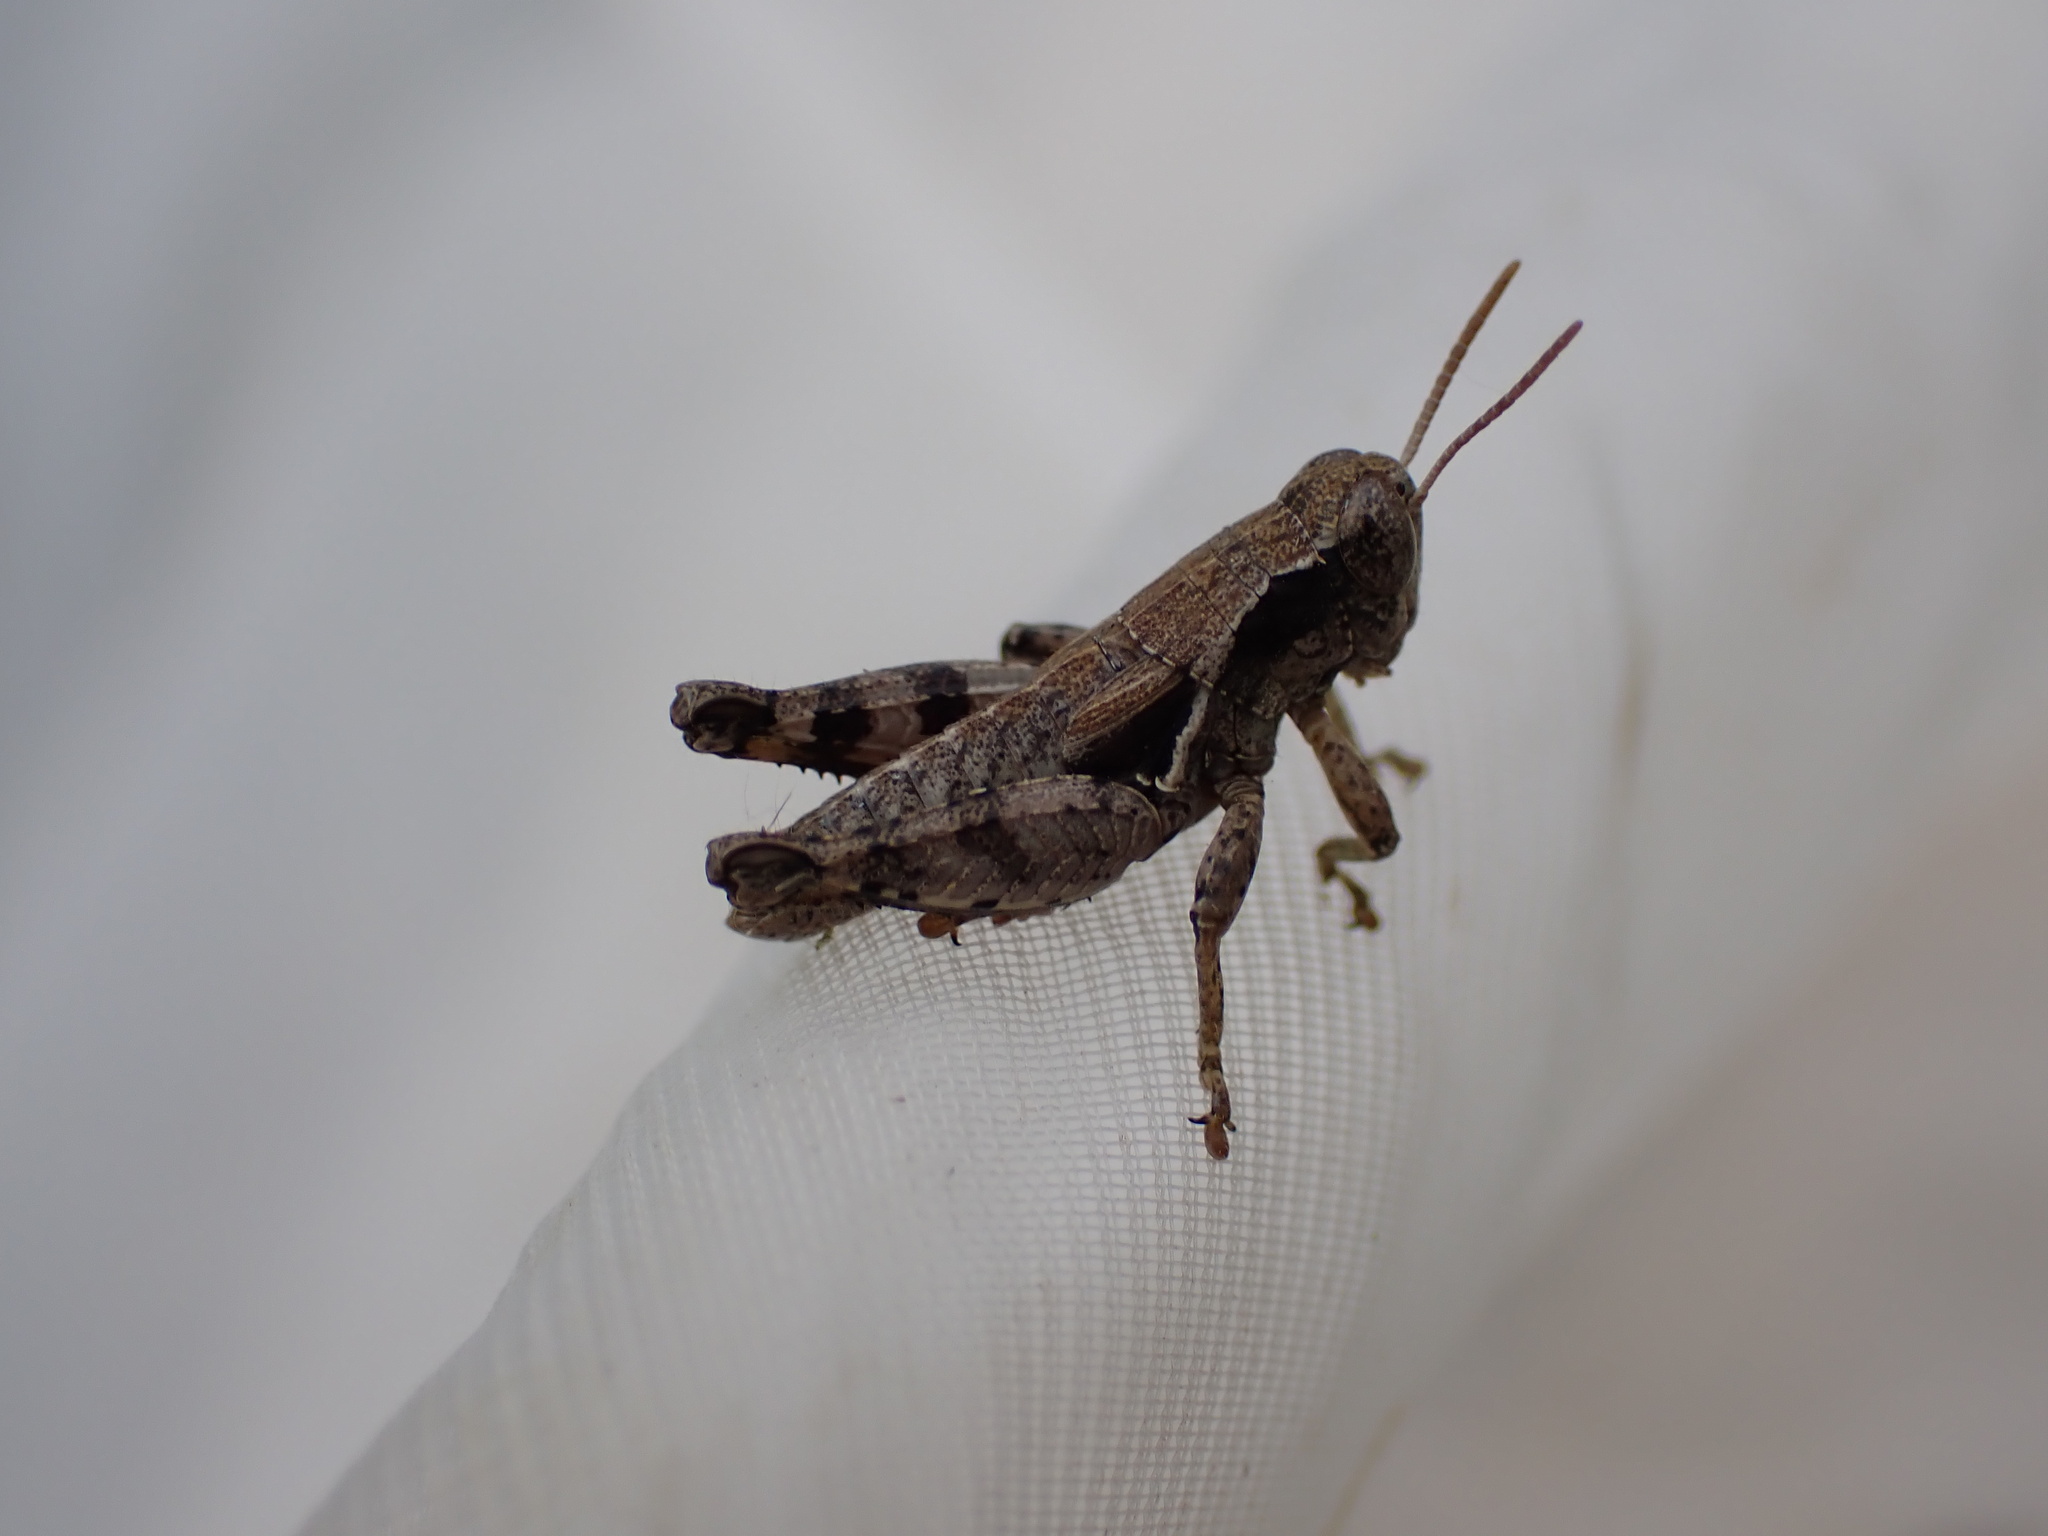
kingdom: Animalia
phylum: Arthropoda
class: Insecta
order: Orthoptera
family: Acrididae
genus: Pezotettix
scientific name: Pezotettix giornae
